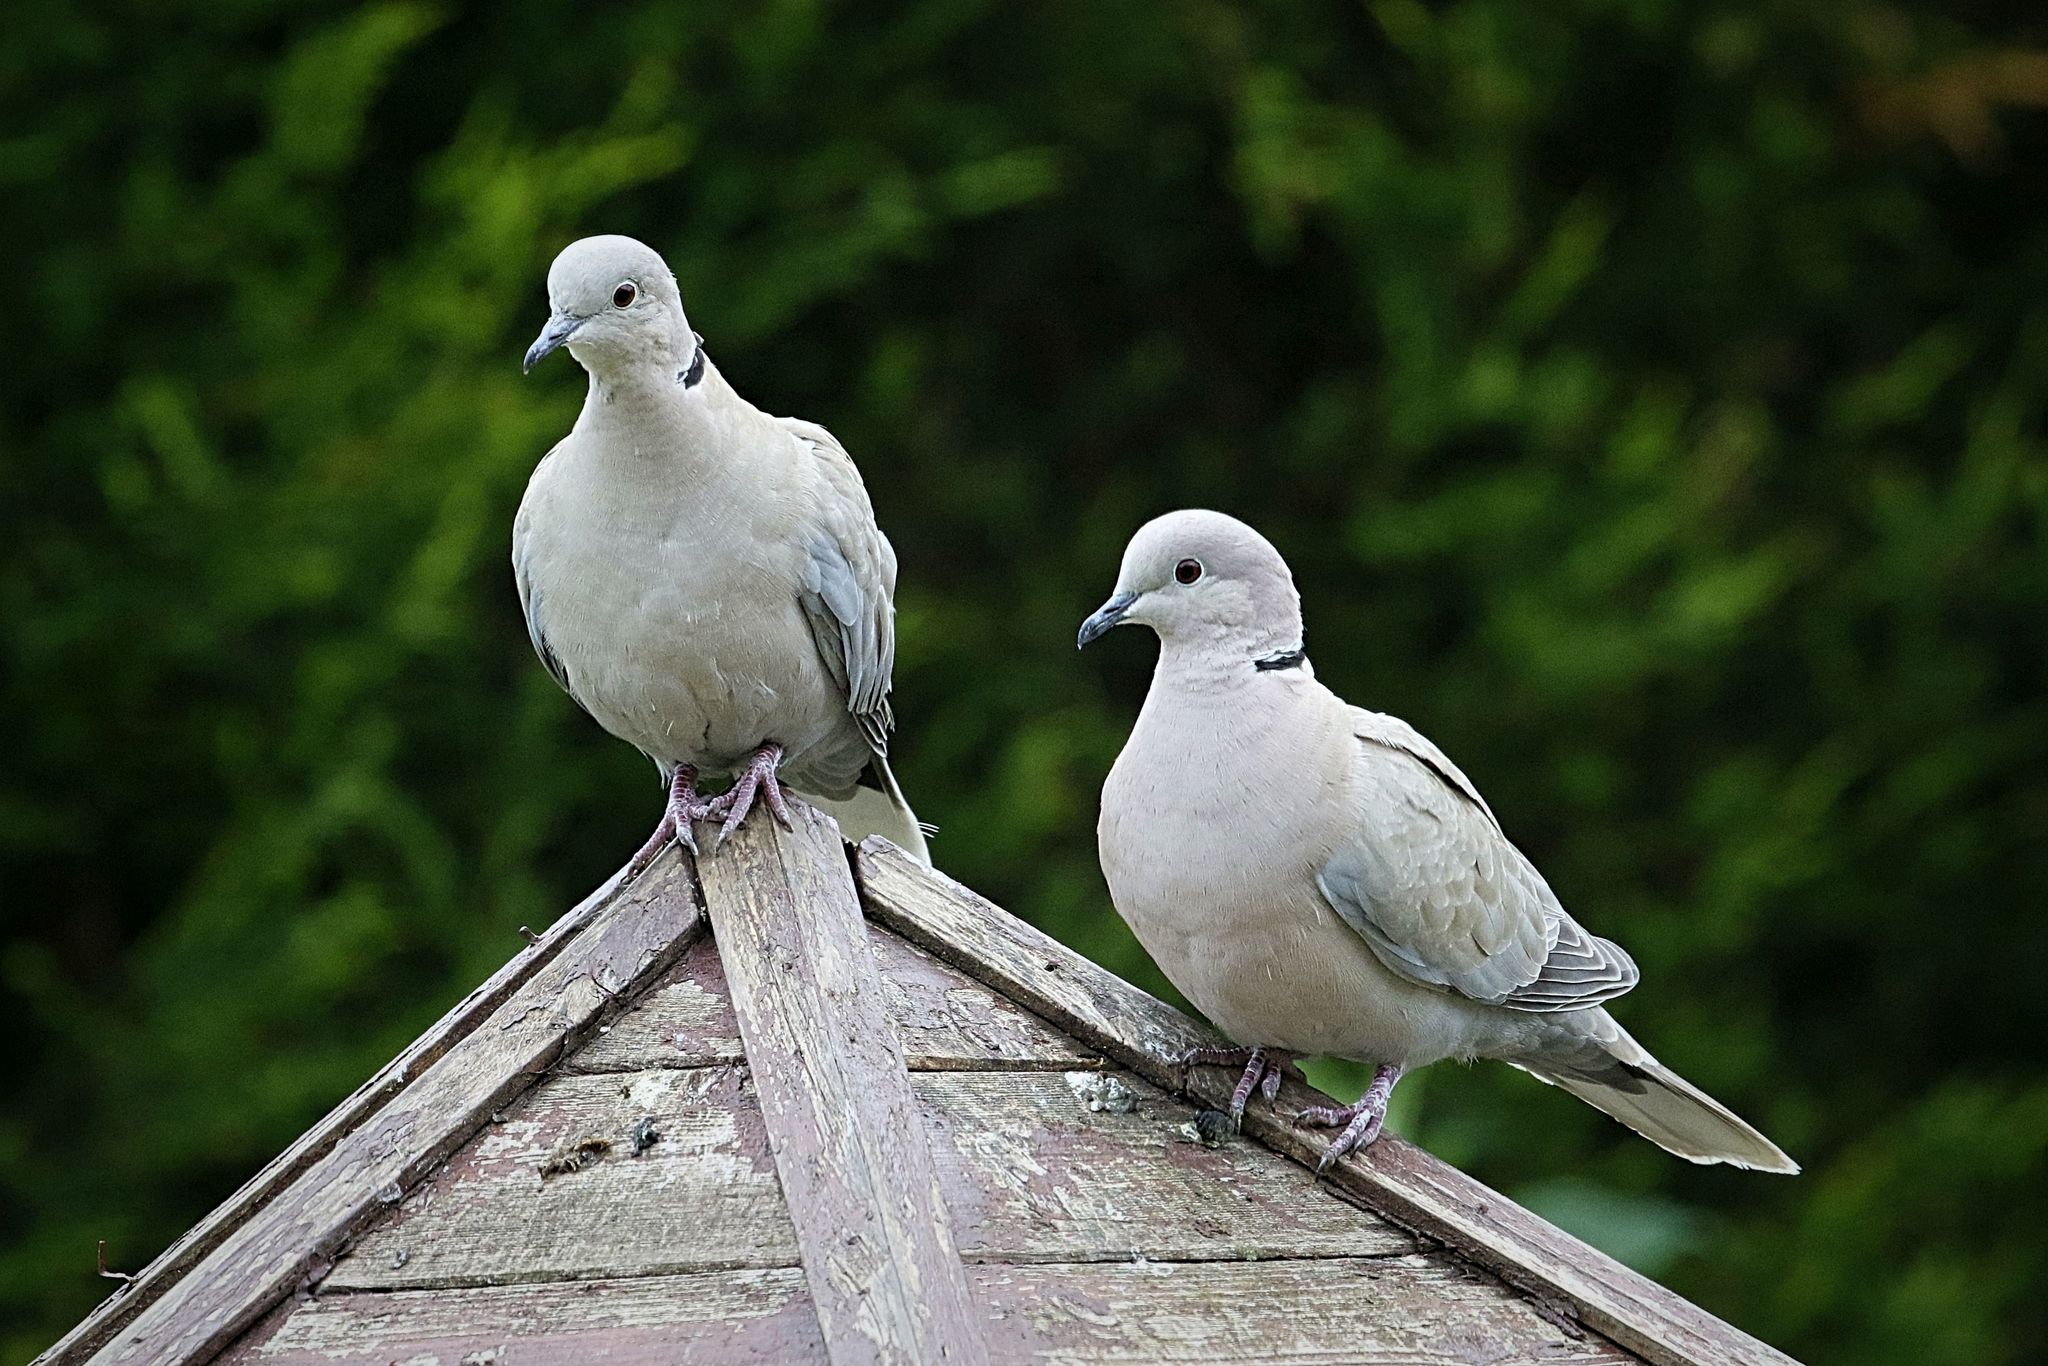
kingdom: Animalia
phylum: Chordata
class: Aves
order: Columbiformes
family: Columbidae
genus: Streptopelia
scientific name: Streptopelia decaocto
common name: Eurasian collared dove
